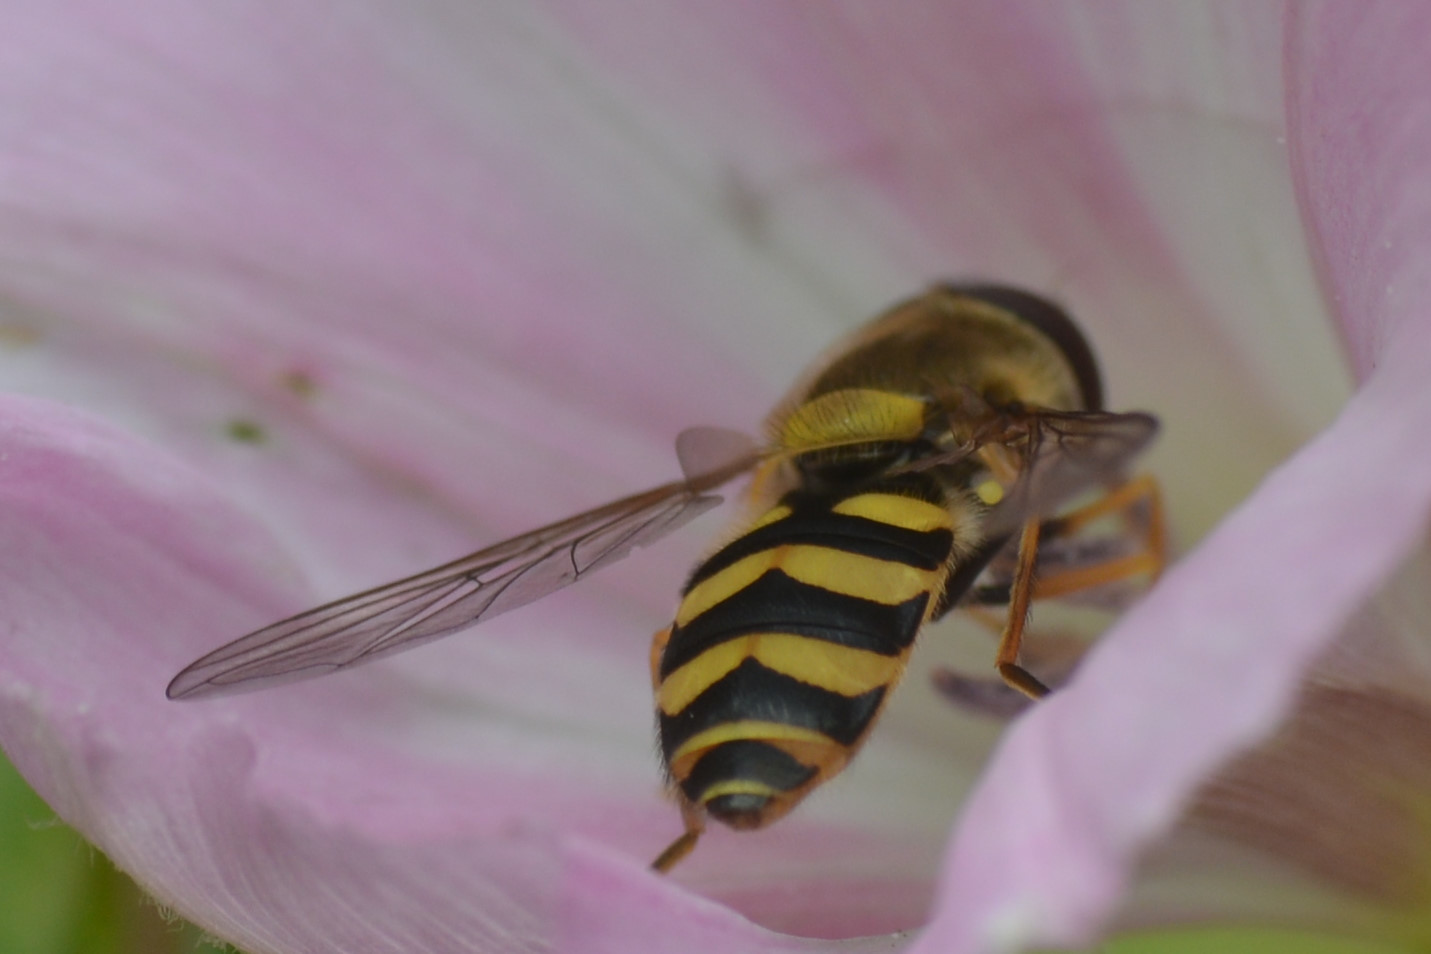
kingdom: Animalia
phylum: Arthropoda
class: Insecta
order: Diptera
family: Syrphidae
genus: Syrphus
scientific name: Syrphus
